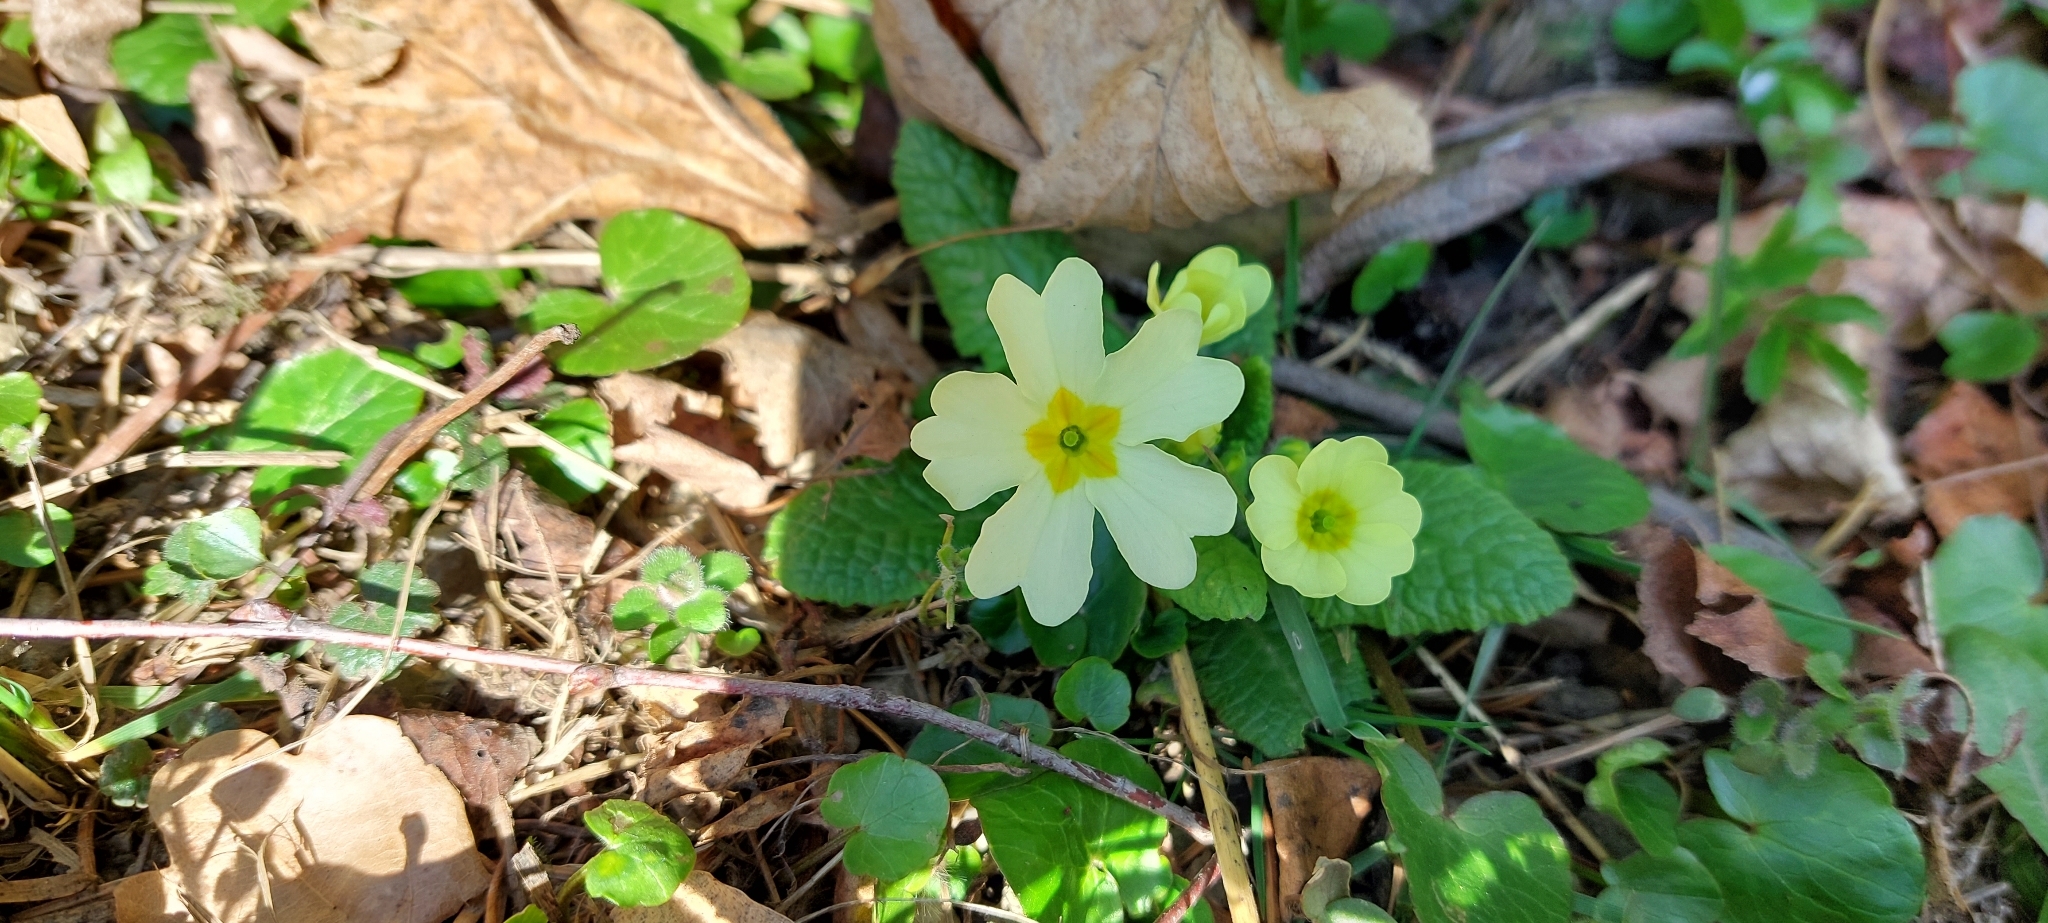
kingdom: Plantae
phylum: Tracheophyta
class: Magnoliopsida
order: Ericales
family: Primulaceae
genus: Primula
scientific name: Primula vulgaris
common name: Primrose
